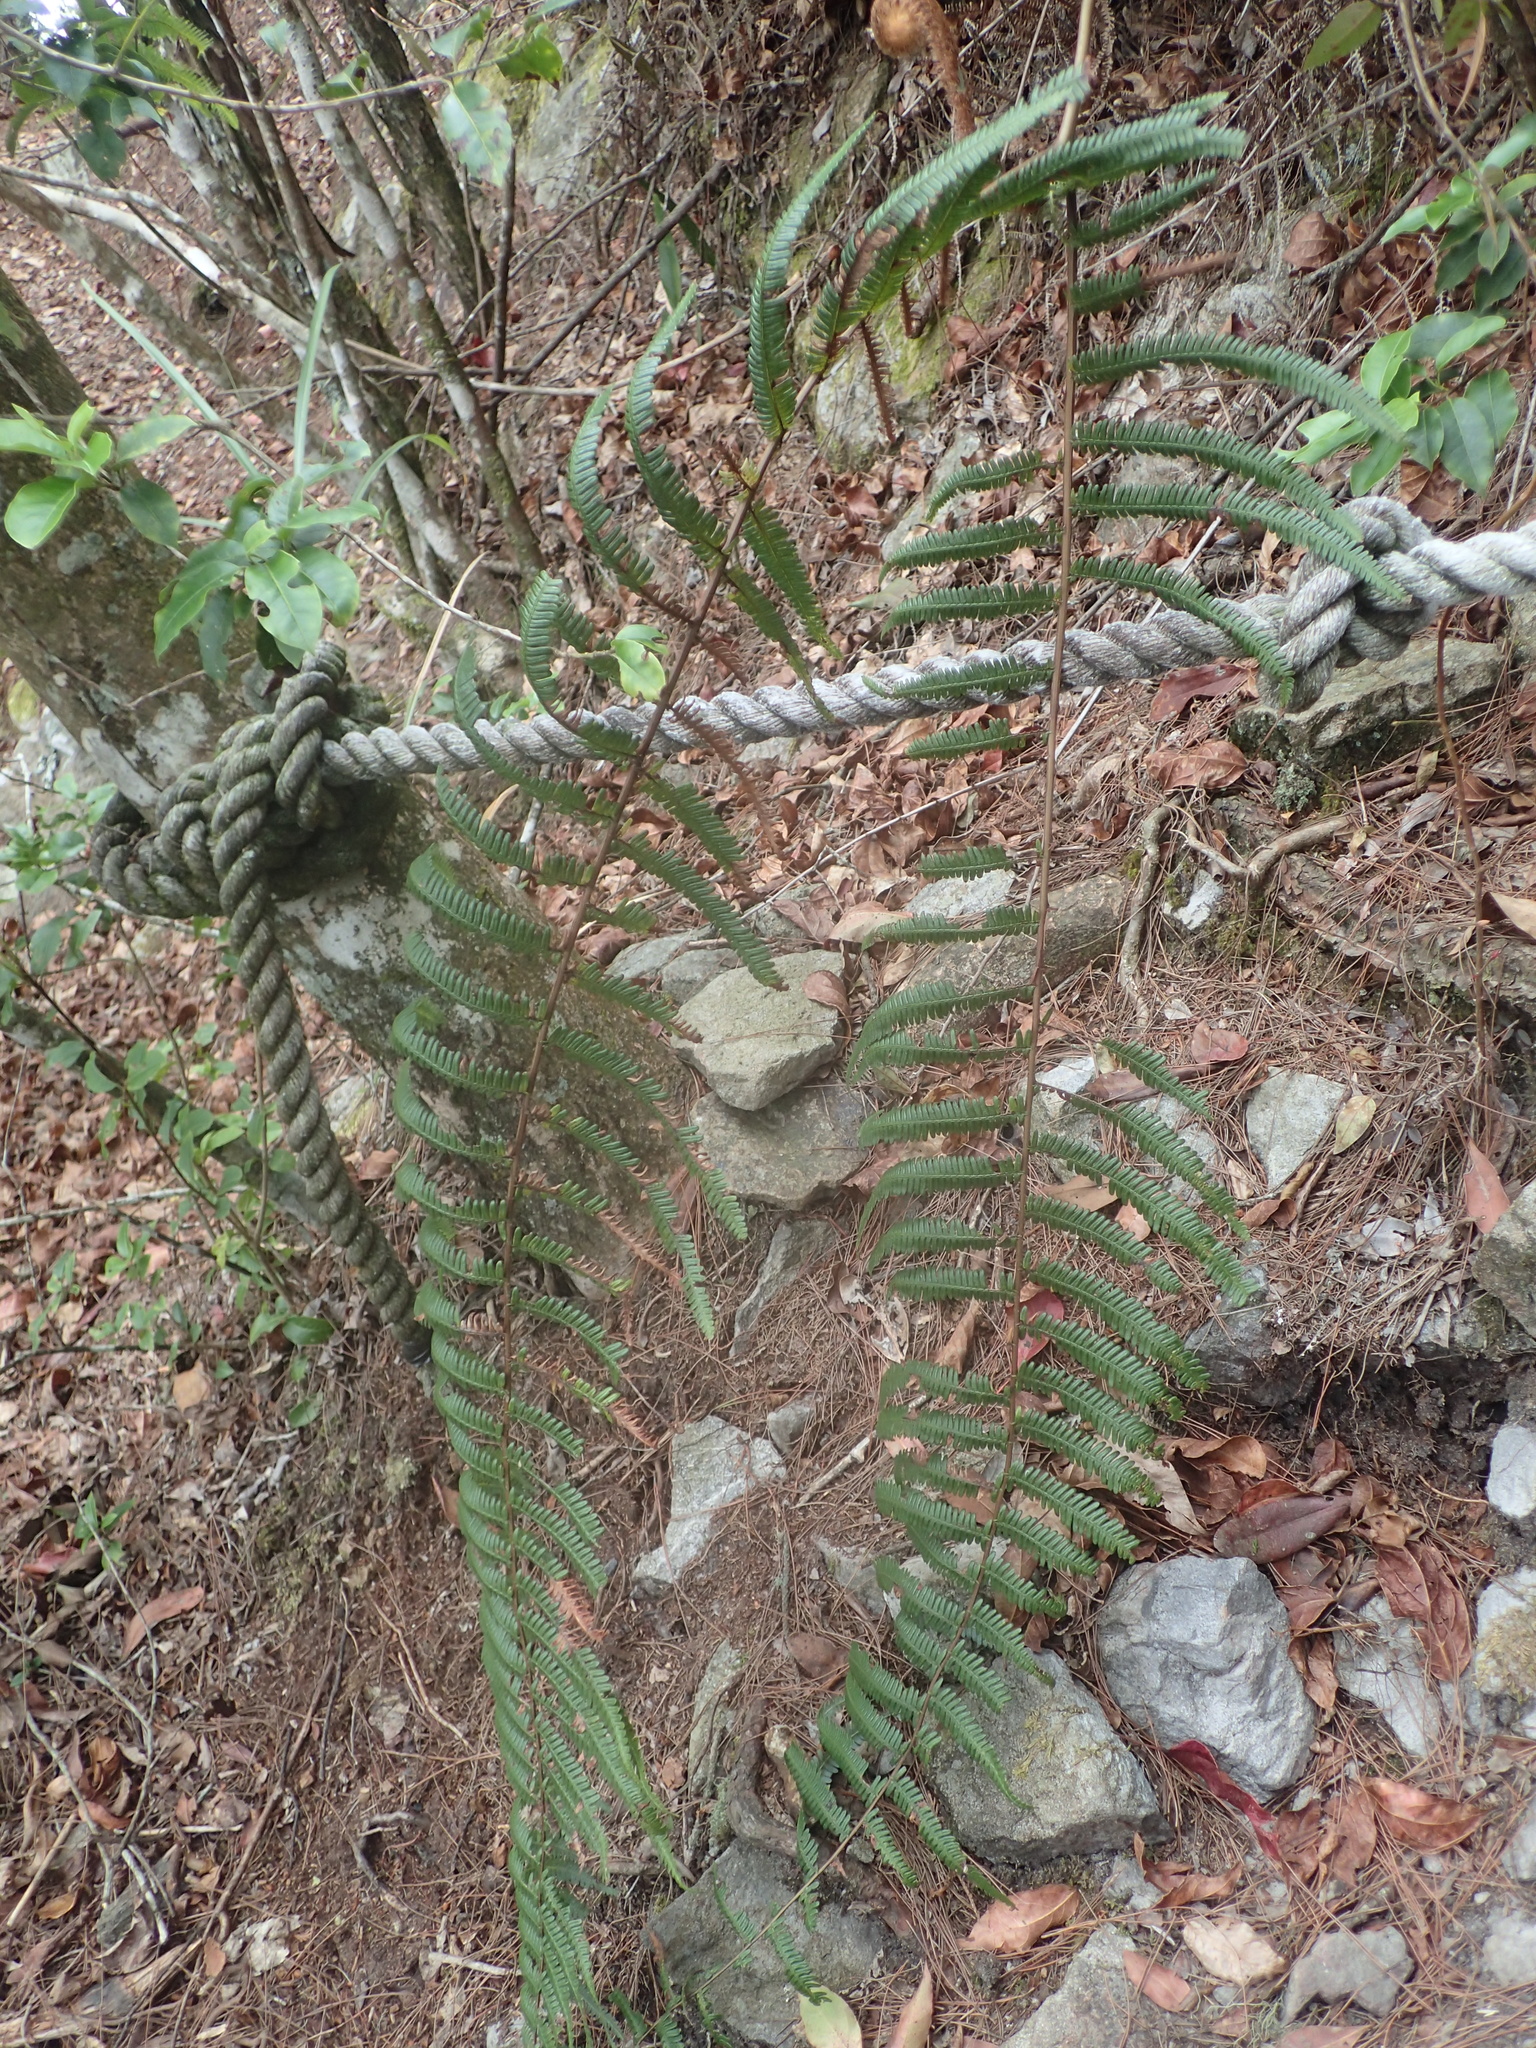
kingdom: Plantae
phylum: Tracheophyta
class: Polypodiopsida
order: Gleicheniales
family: Gleicheniaceae
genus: Diplopterygium
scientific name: Diplopterygium glaucum
